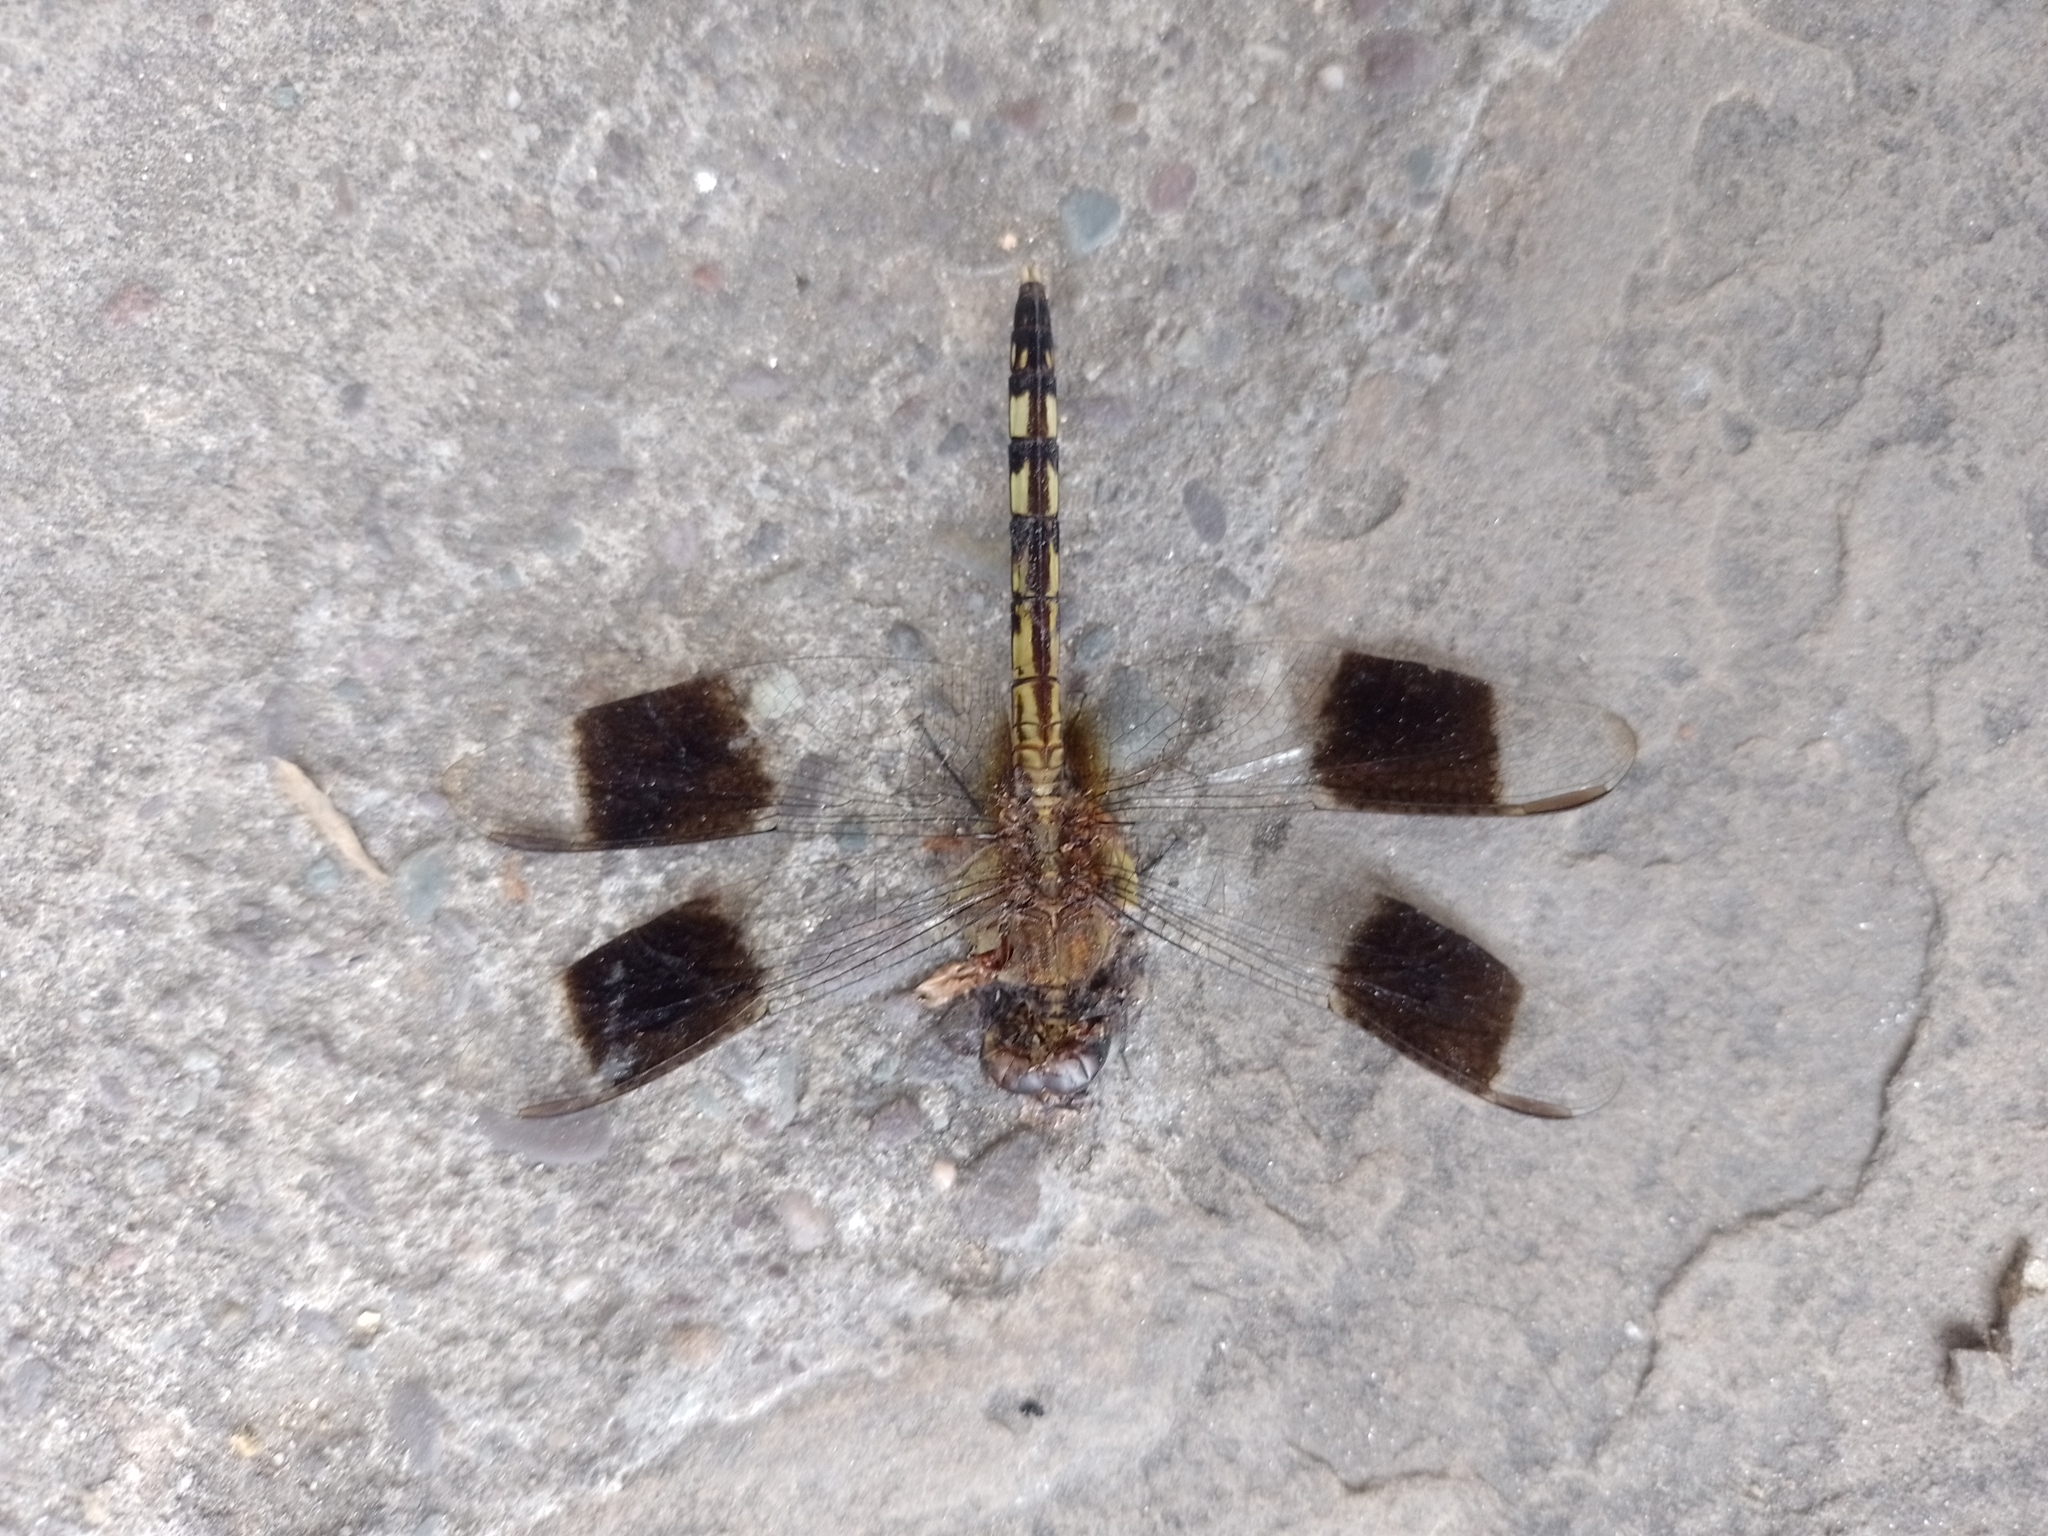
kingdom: Animalia
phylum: Arthropoda
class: Insecta
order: Odonata
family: Libellulidae
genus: Erythrodiplax
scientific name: Erythrodiplax umbrata
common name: Band-winged dragonlet
